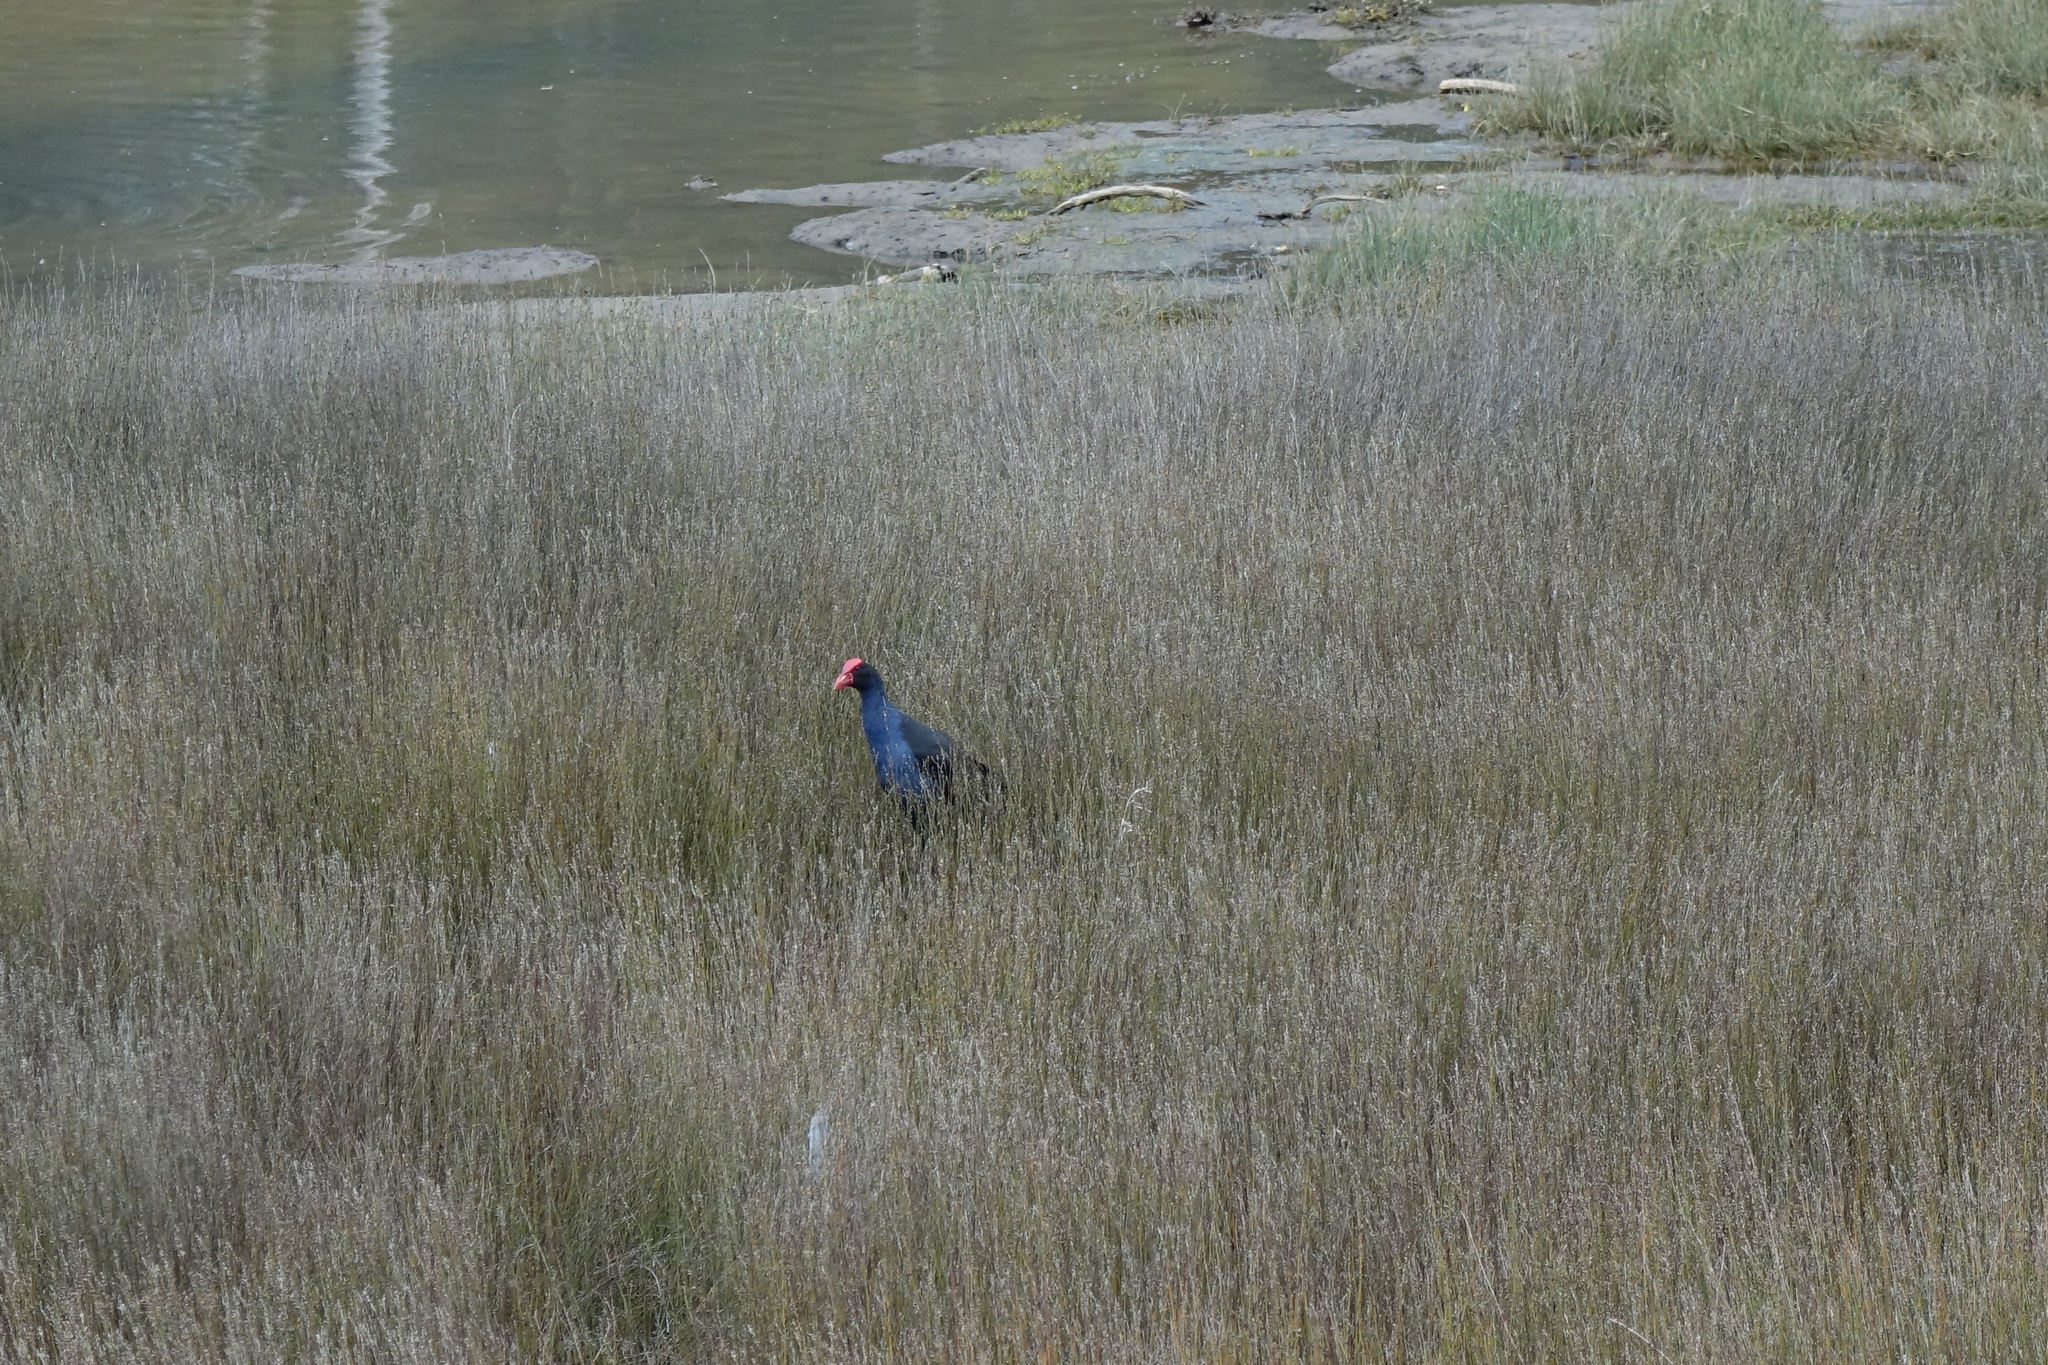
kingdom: Animalia
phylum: Chordata
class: Aves
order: Gruiformes
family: Rallidae
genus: Porphyrio
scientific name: Porphyrio melanotus
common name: Australasian swamphen
